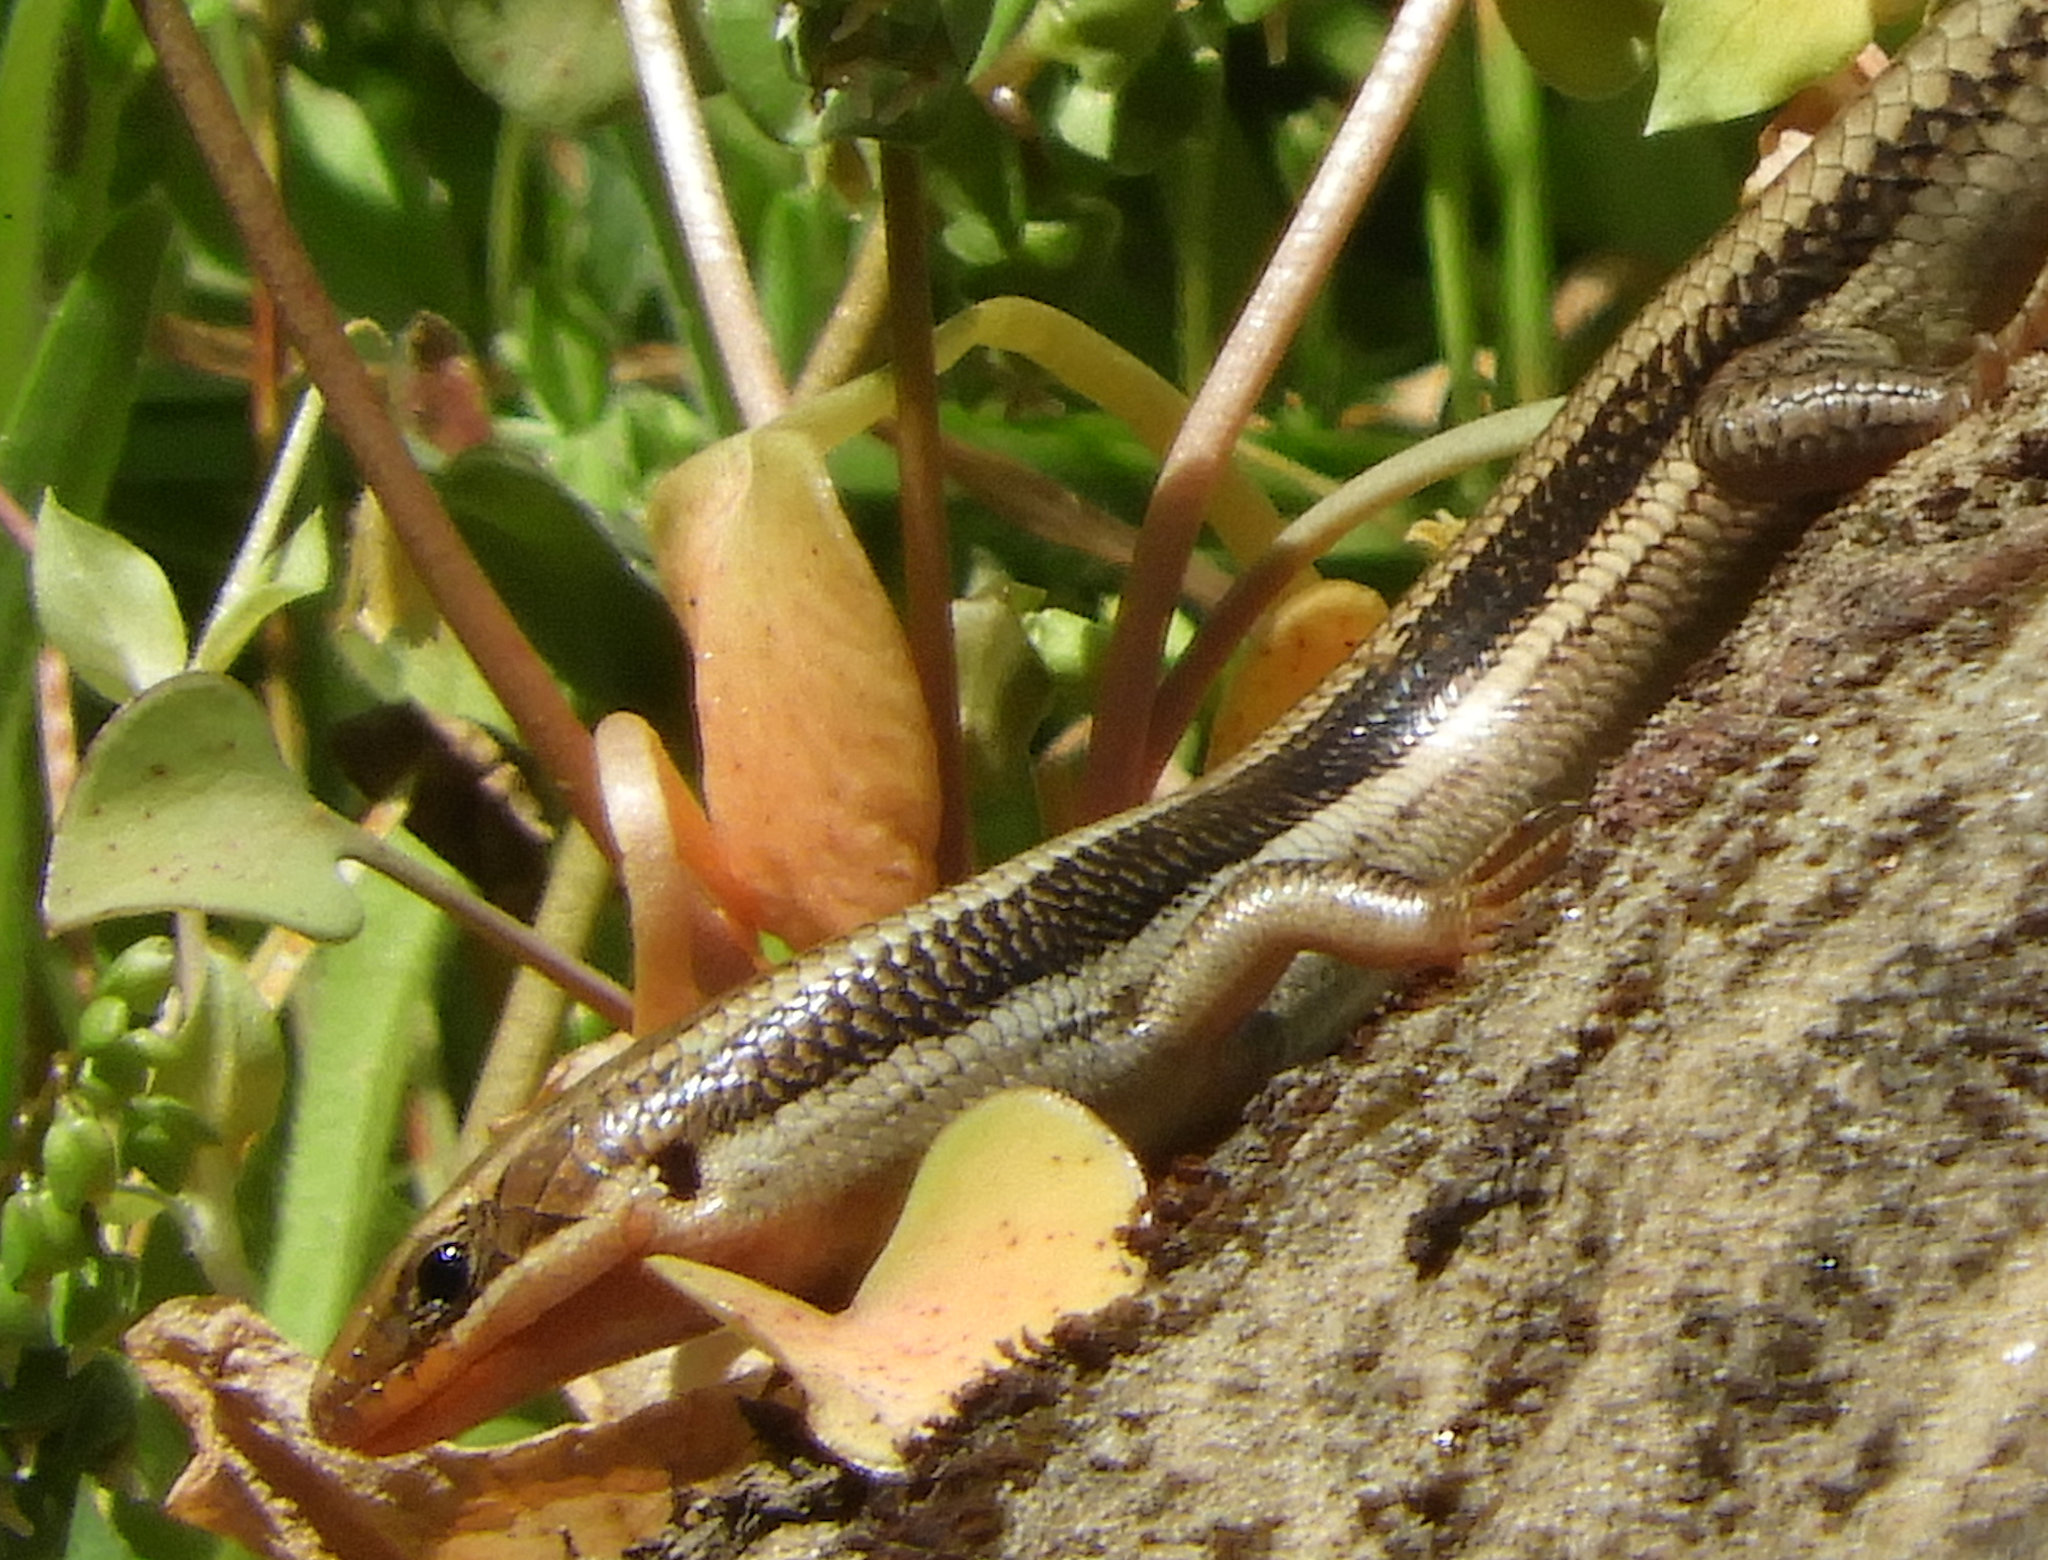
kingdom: Animalia
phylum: Chordata
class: Squamata
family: Scincidae
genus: Plestiodon
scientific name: Plestiodon skiltonianus
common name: Coronado island skink [interparietalis]
